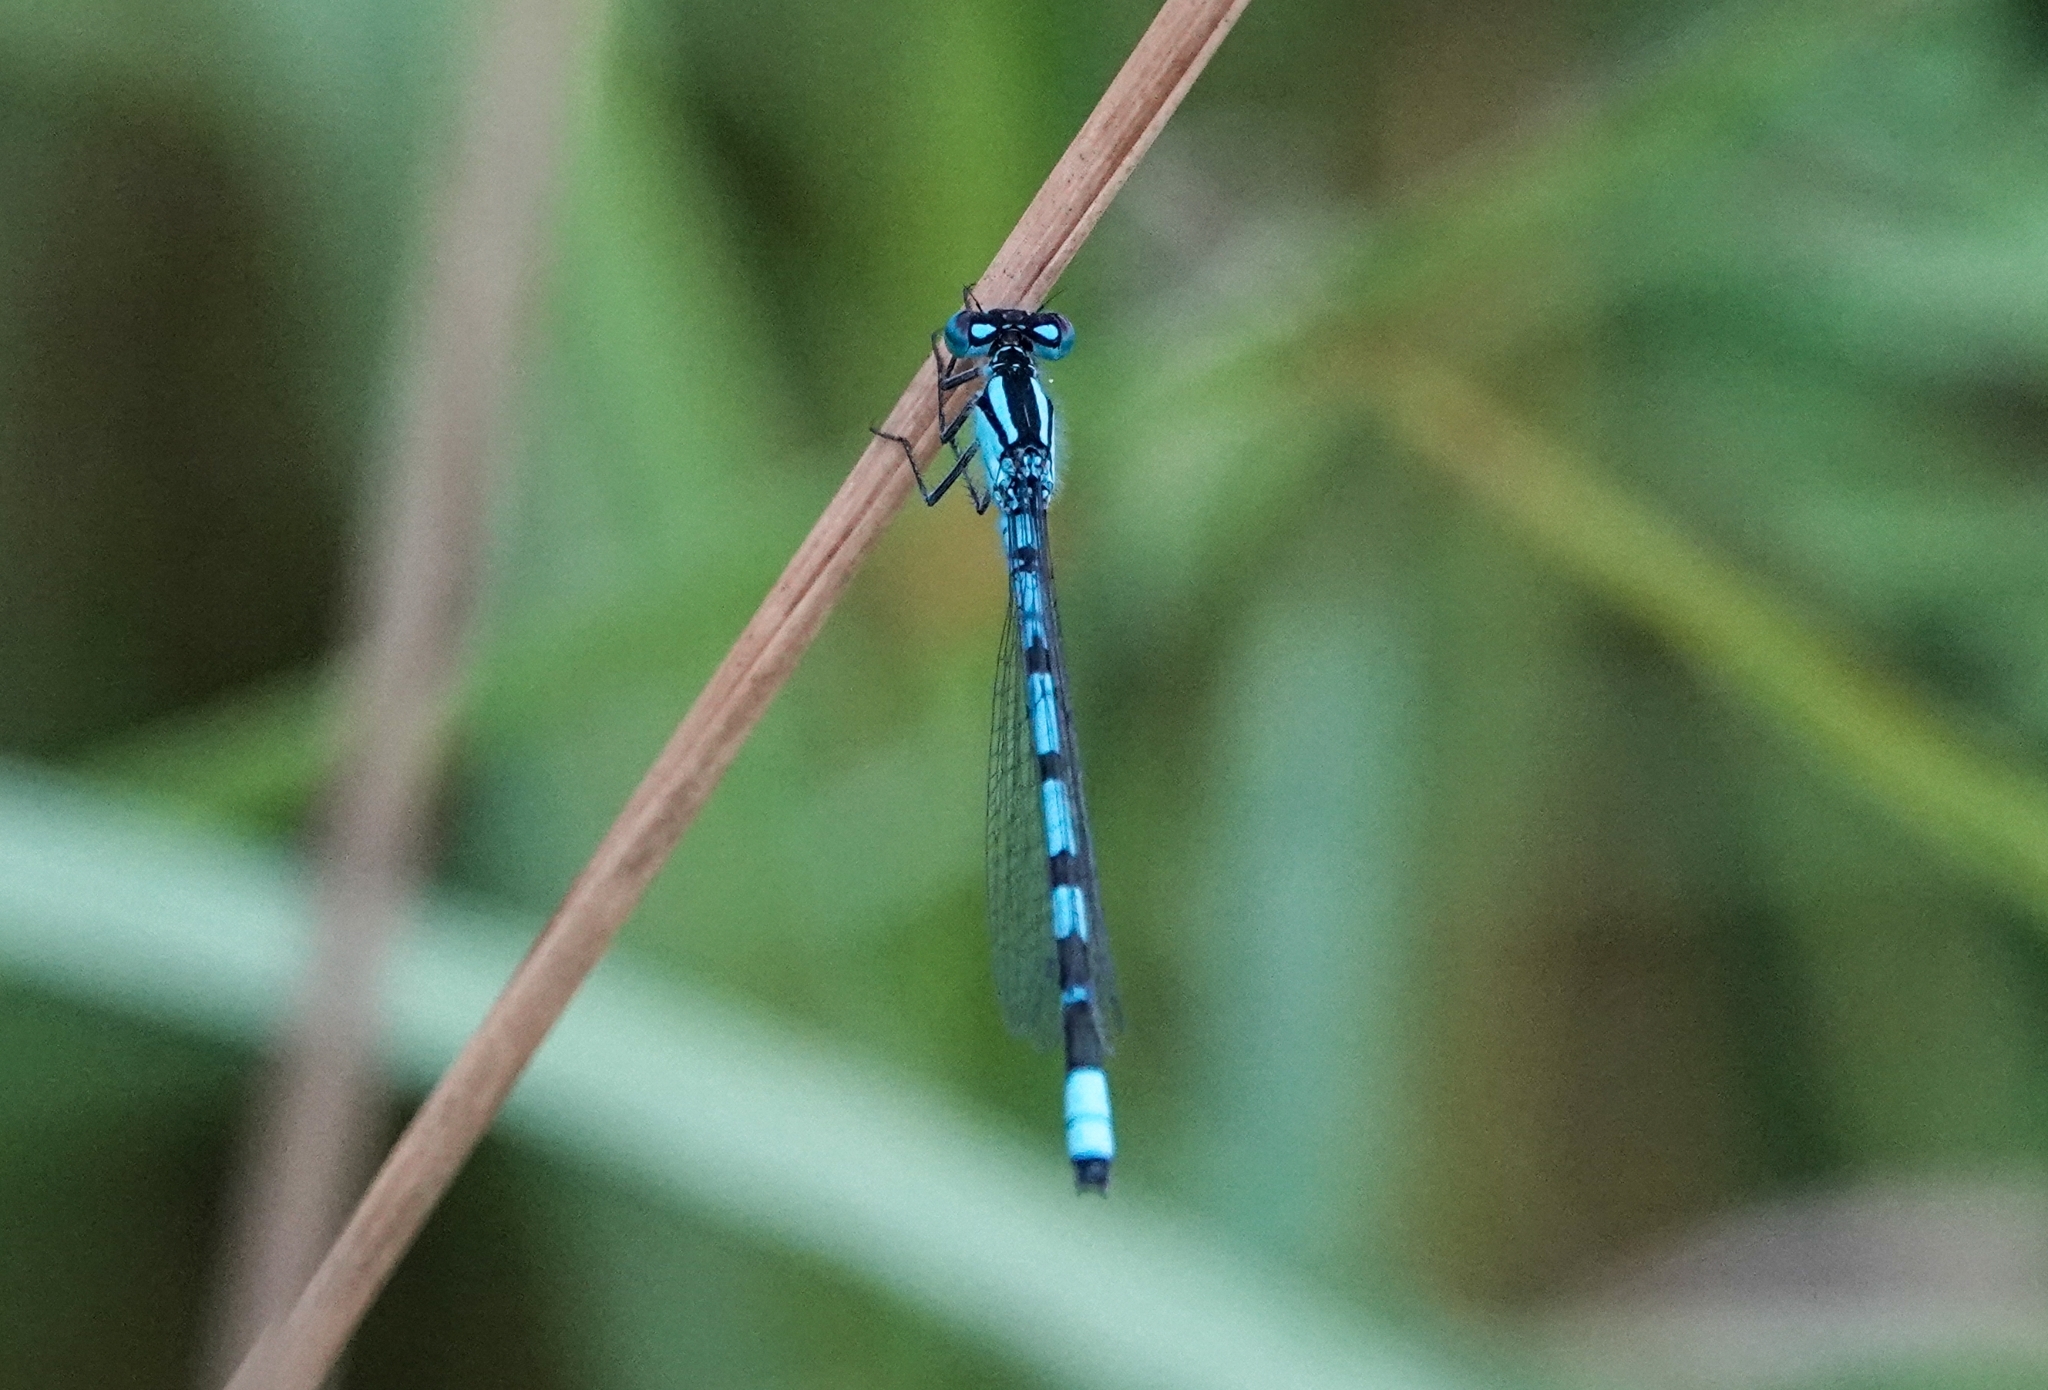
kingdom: Animalia
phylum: Arthropoda
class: Insecta
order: Odonata
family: Coenagrionidae
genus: Enallagma
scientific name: Enallagma cyathigerum
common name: Common blue damselfly
